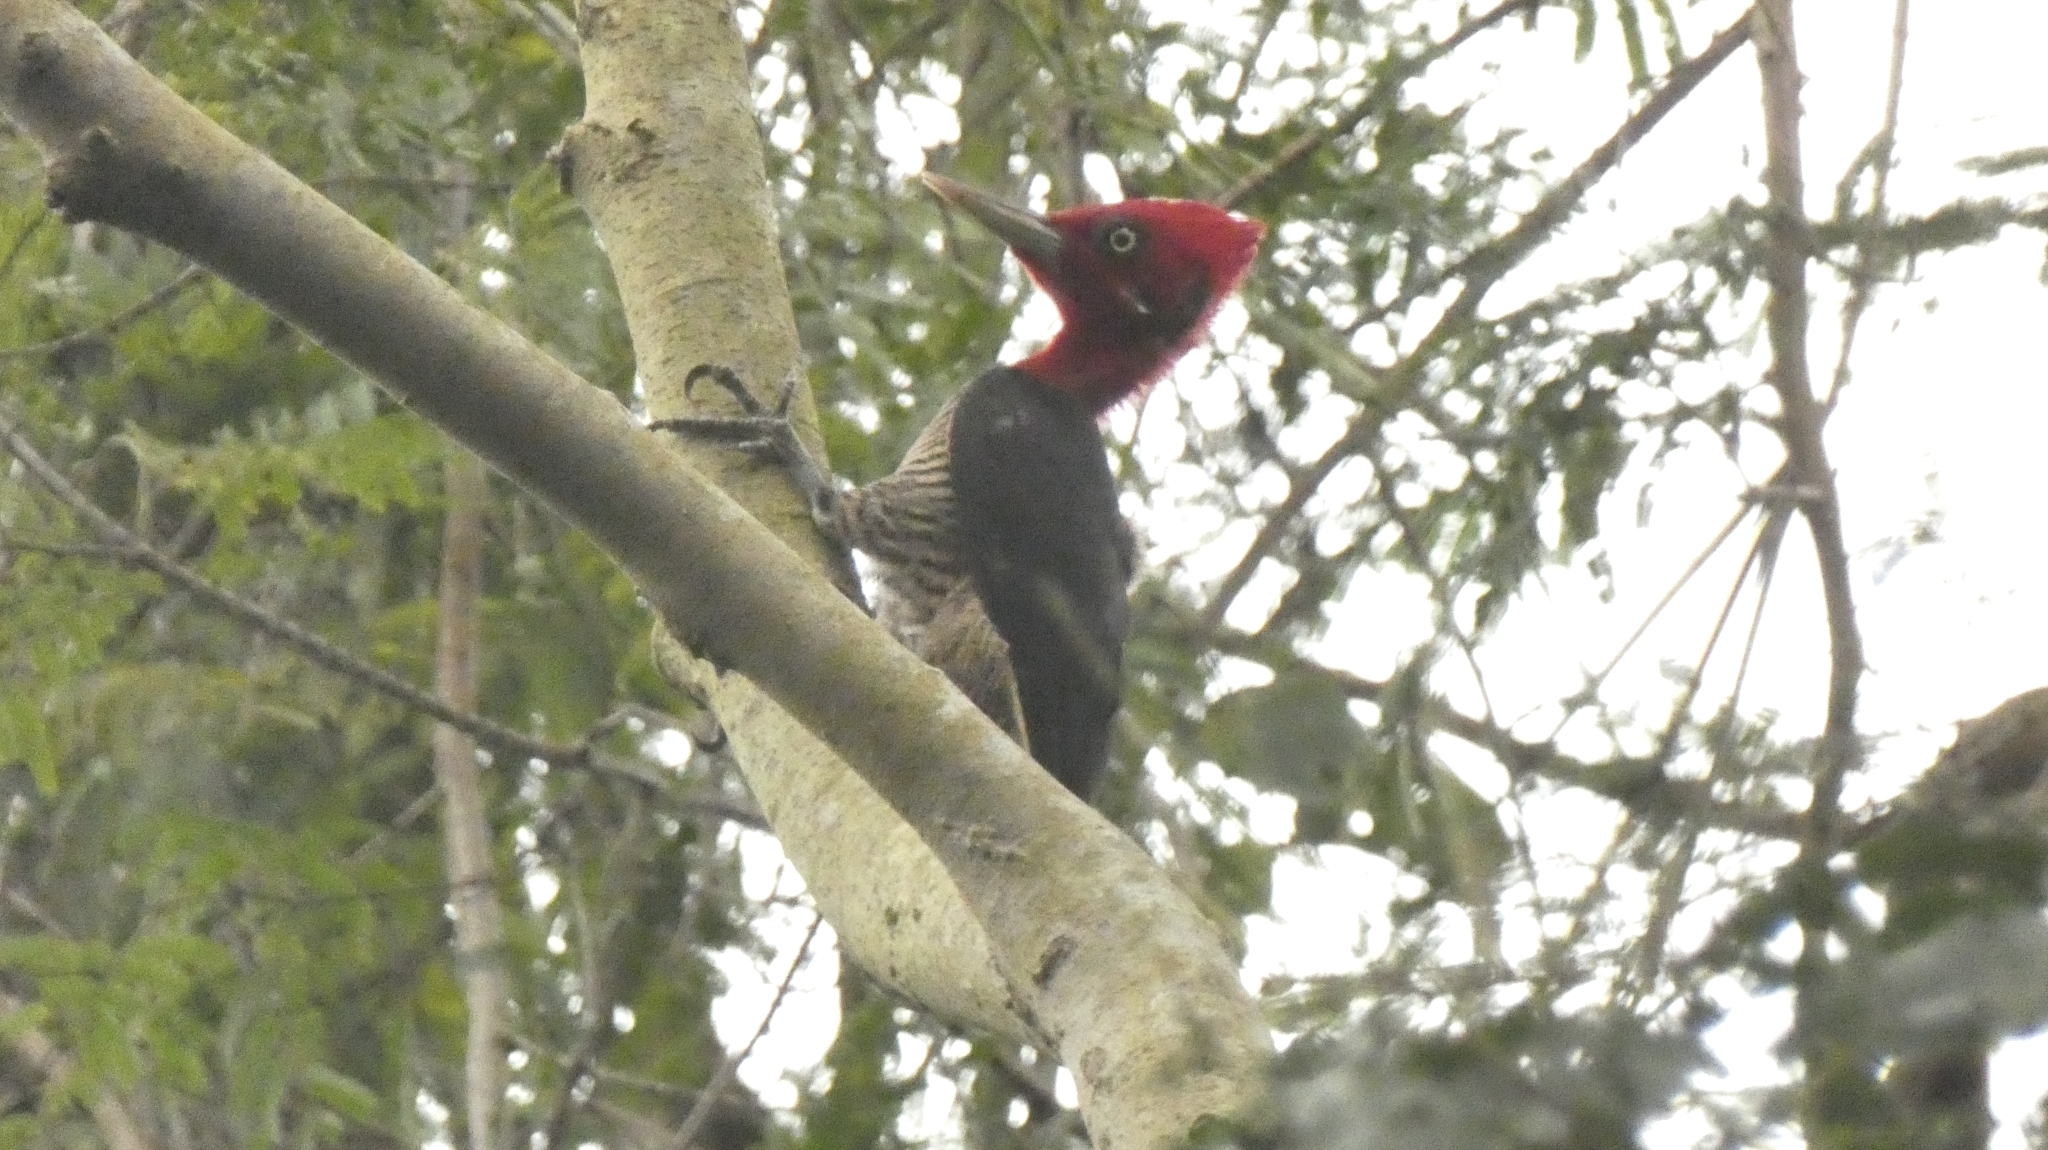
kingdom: Animalia
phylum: Chordata
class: Aves
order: Piciformes
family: Picidae
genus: Campephilus
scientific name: Campephilus robustus
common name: Robust woodpecker
